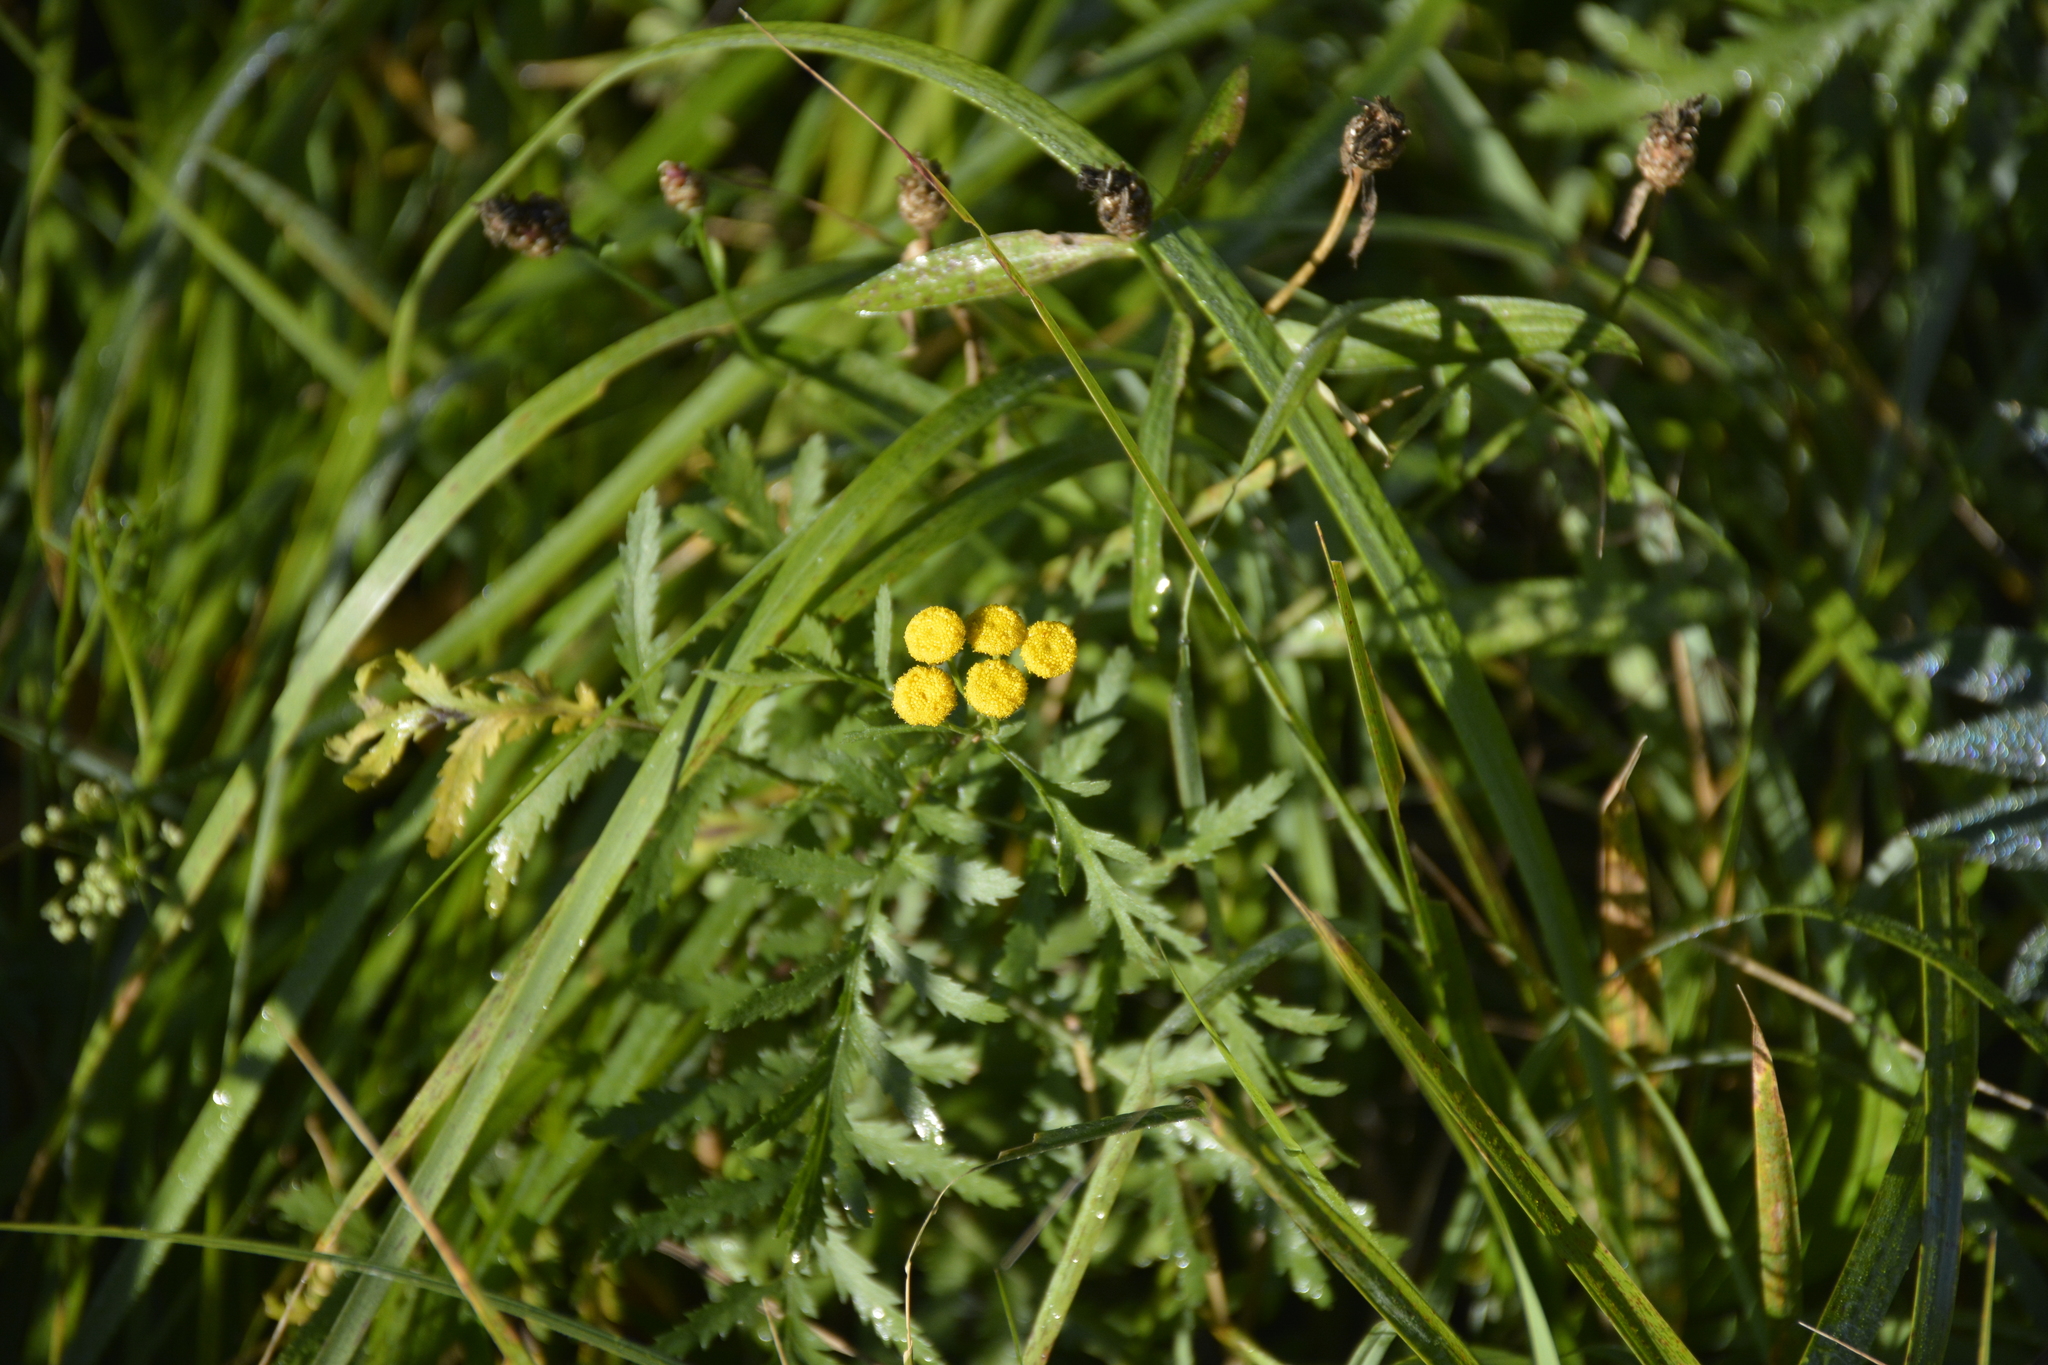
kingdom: Plantae
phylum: Tracheophyta
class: Magnoliopsida
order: Asterales
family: Asteraceae
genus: Tanacetum
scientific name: Tanacetum vulgare
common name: Common tansy
